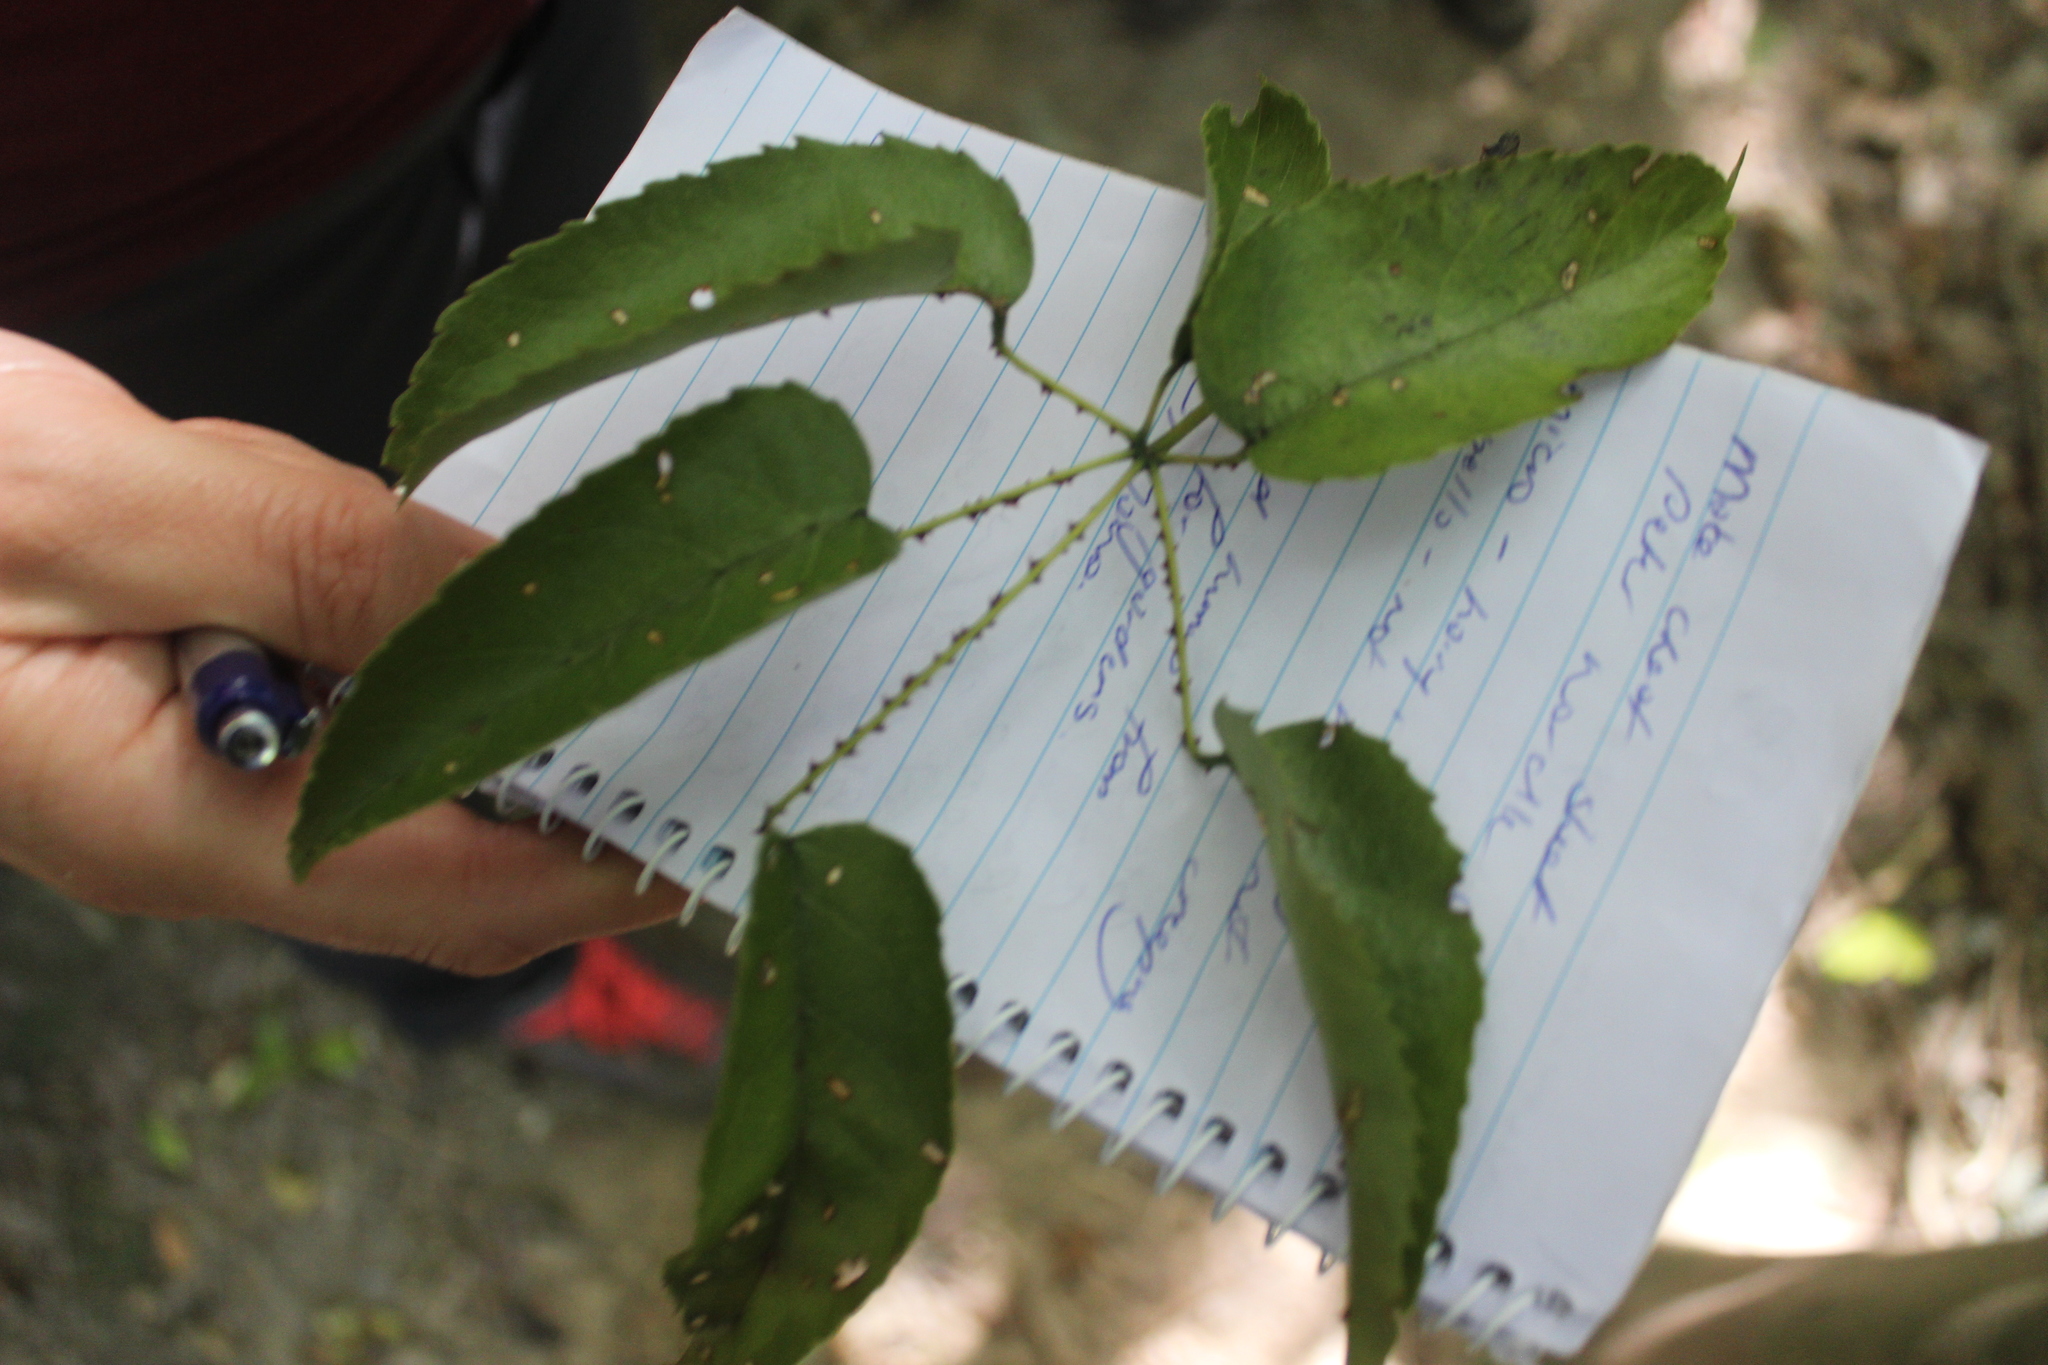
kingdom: Plantae
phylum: Tracheophyta
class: Magnoliopsida
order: Rosales
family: Rosaceae
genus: Rubus
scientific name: Rubus cissoides
